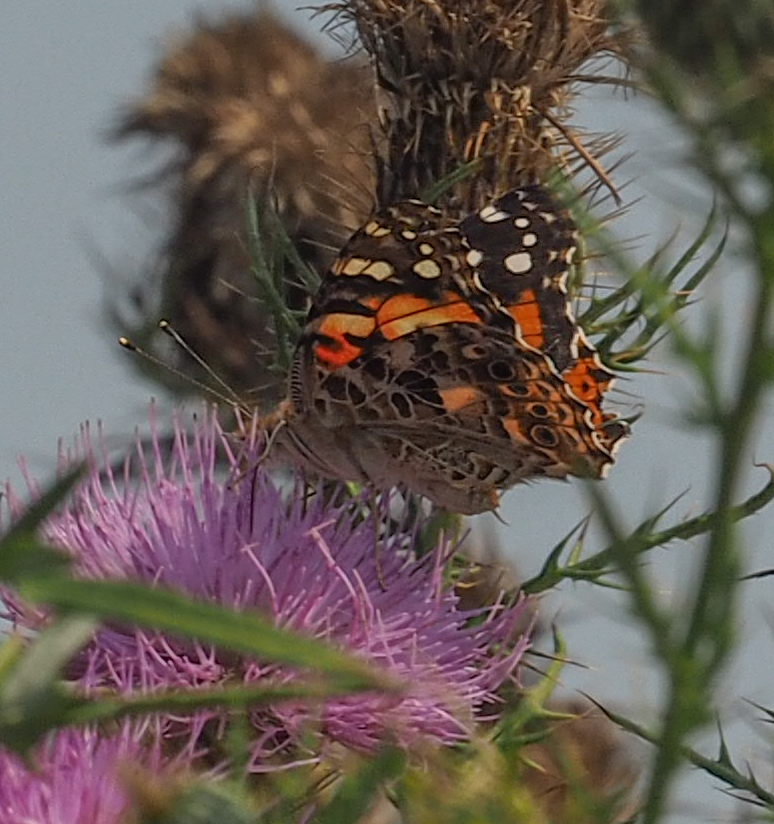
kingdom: Animalia
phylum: Arthropoda
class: Insecta
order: Lepidoptera
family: Nymphalidae
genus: Vanessa
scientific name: Vanessa cardui
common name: Painted lady
